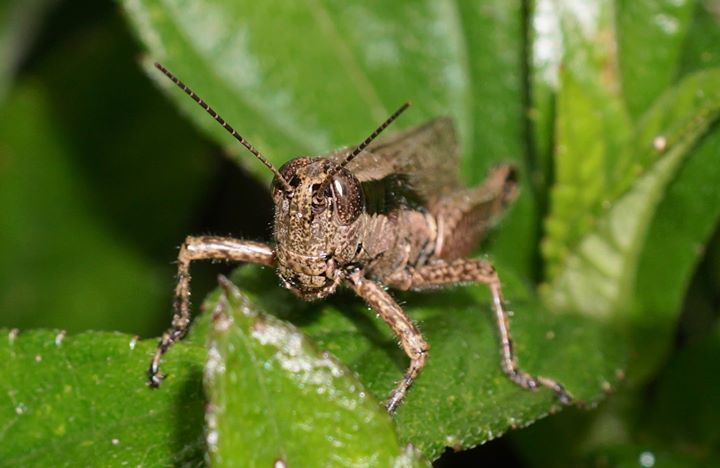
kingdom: Animalia
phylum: Arthropoda
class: Insecta
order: Orthoptera
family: Acrididae
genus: Paroxya
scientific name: Paroxya clavuligera
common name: Olive-green swamp grasshopper
